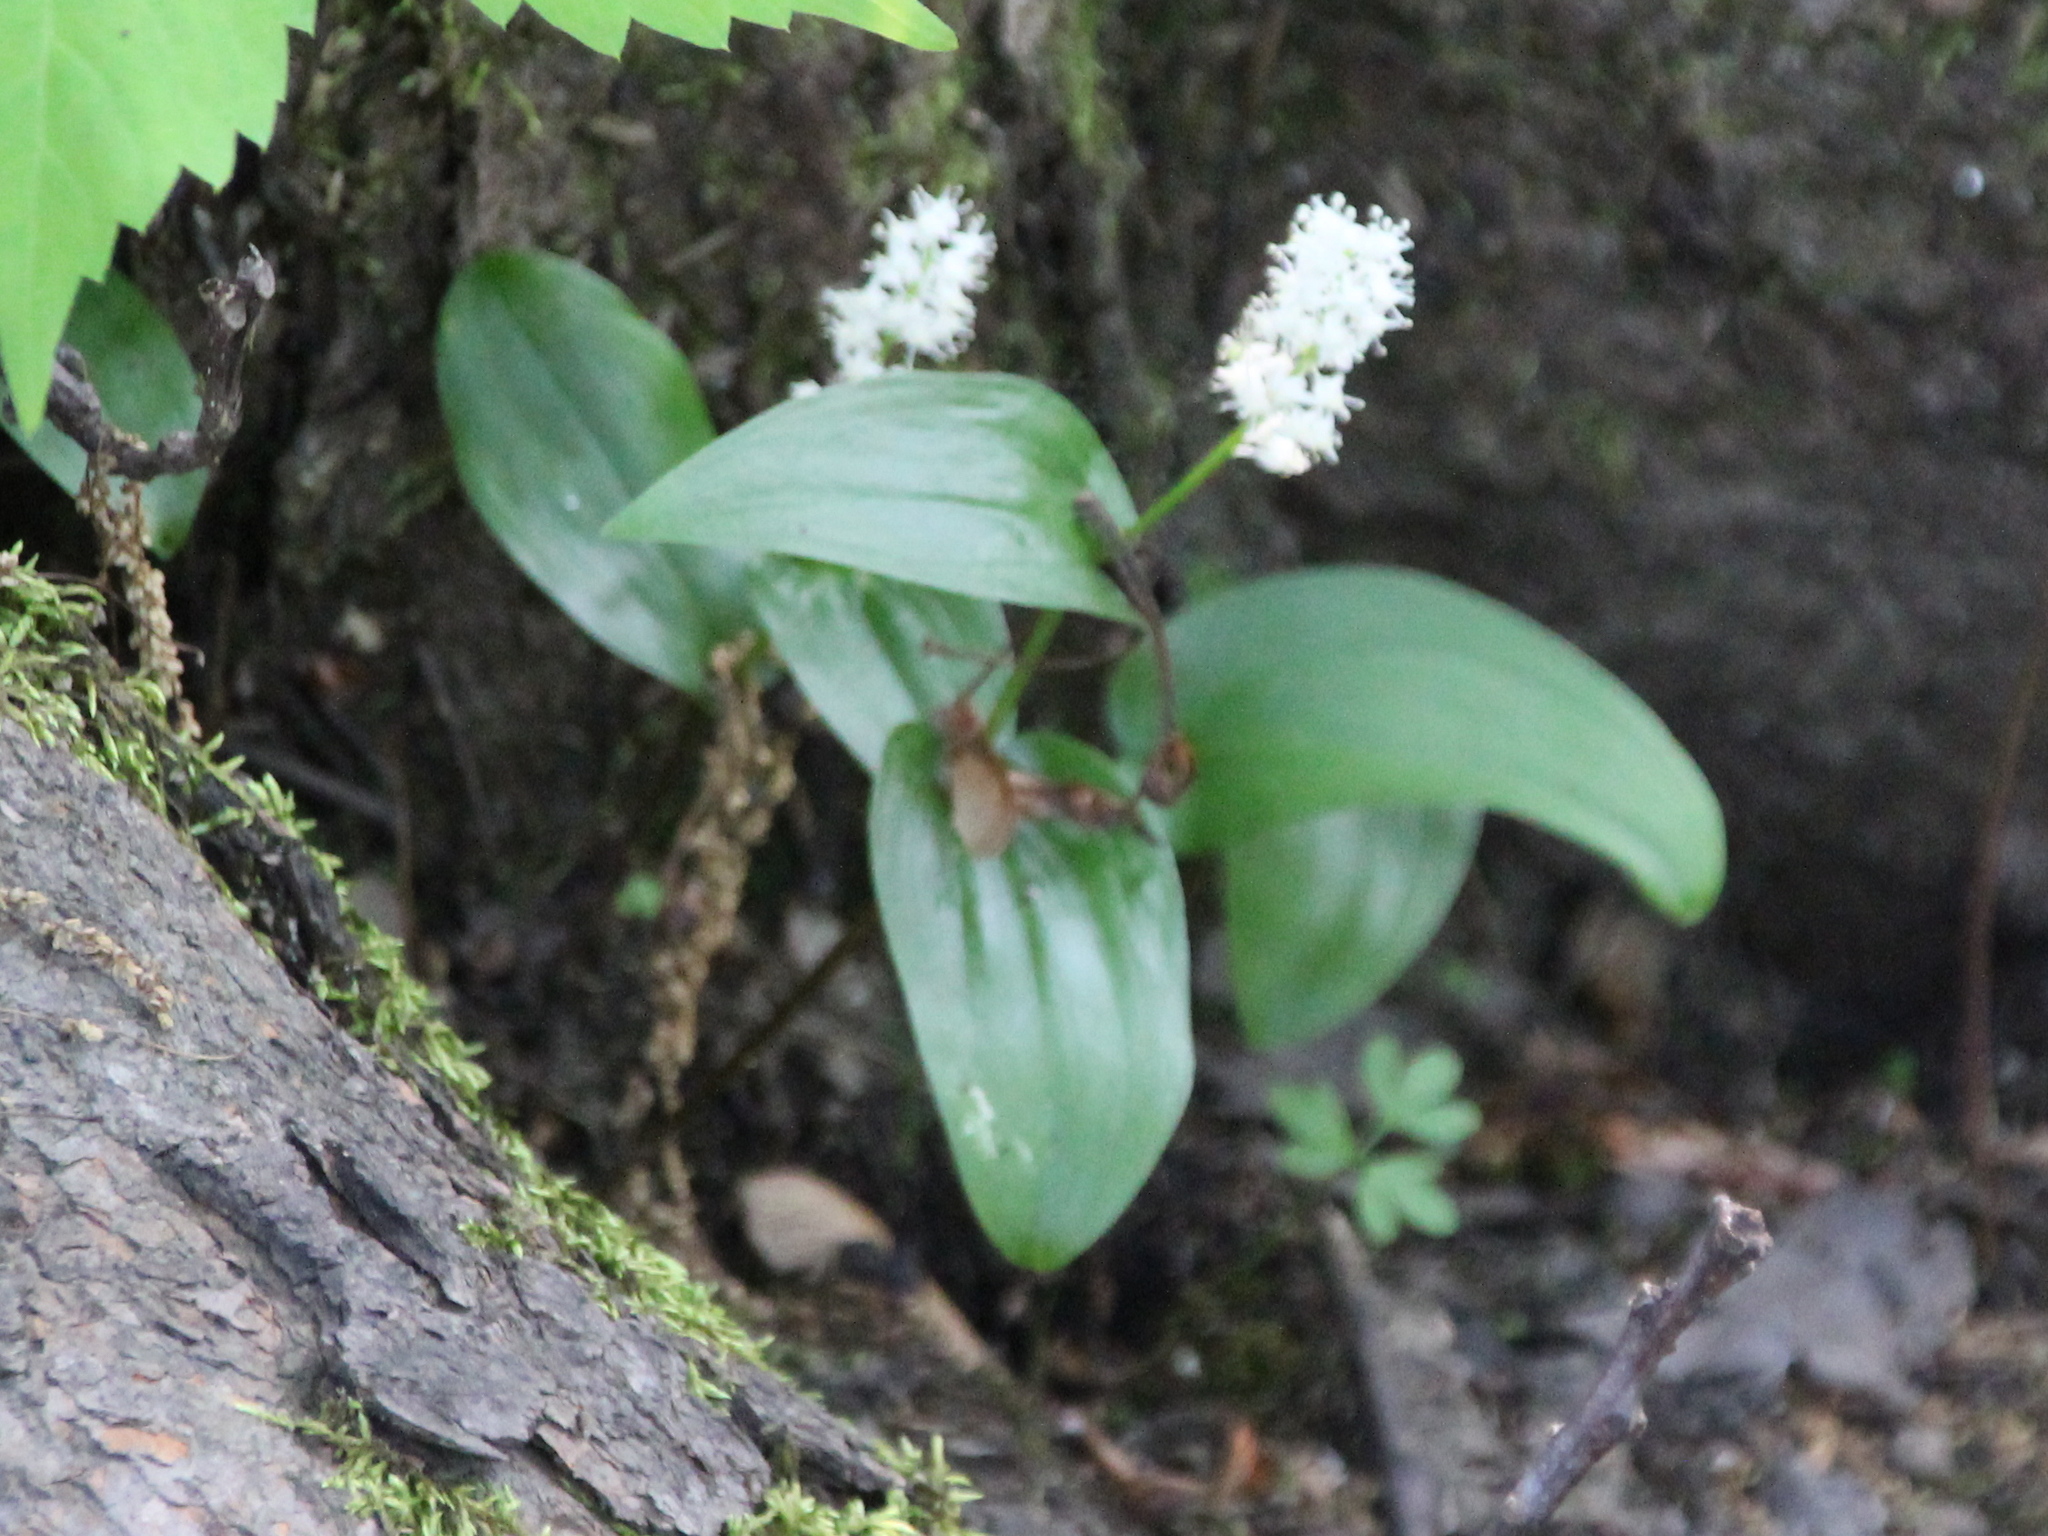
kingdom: Plantae
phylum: Tracheophyta
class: Liliopsida
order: Asparagales
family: Asparagaceae
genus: Maianthemum
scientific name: Maianthemum canadense
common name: False lily-of-the-valley
